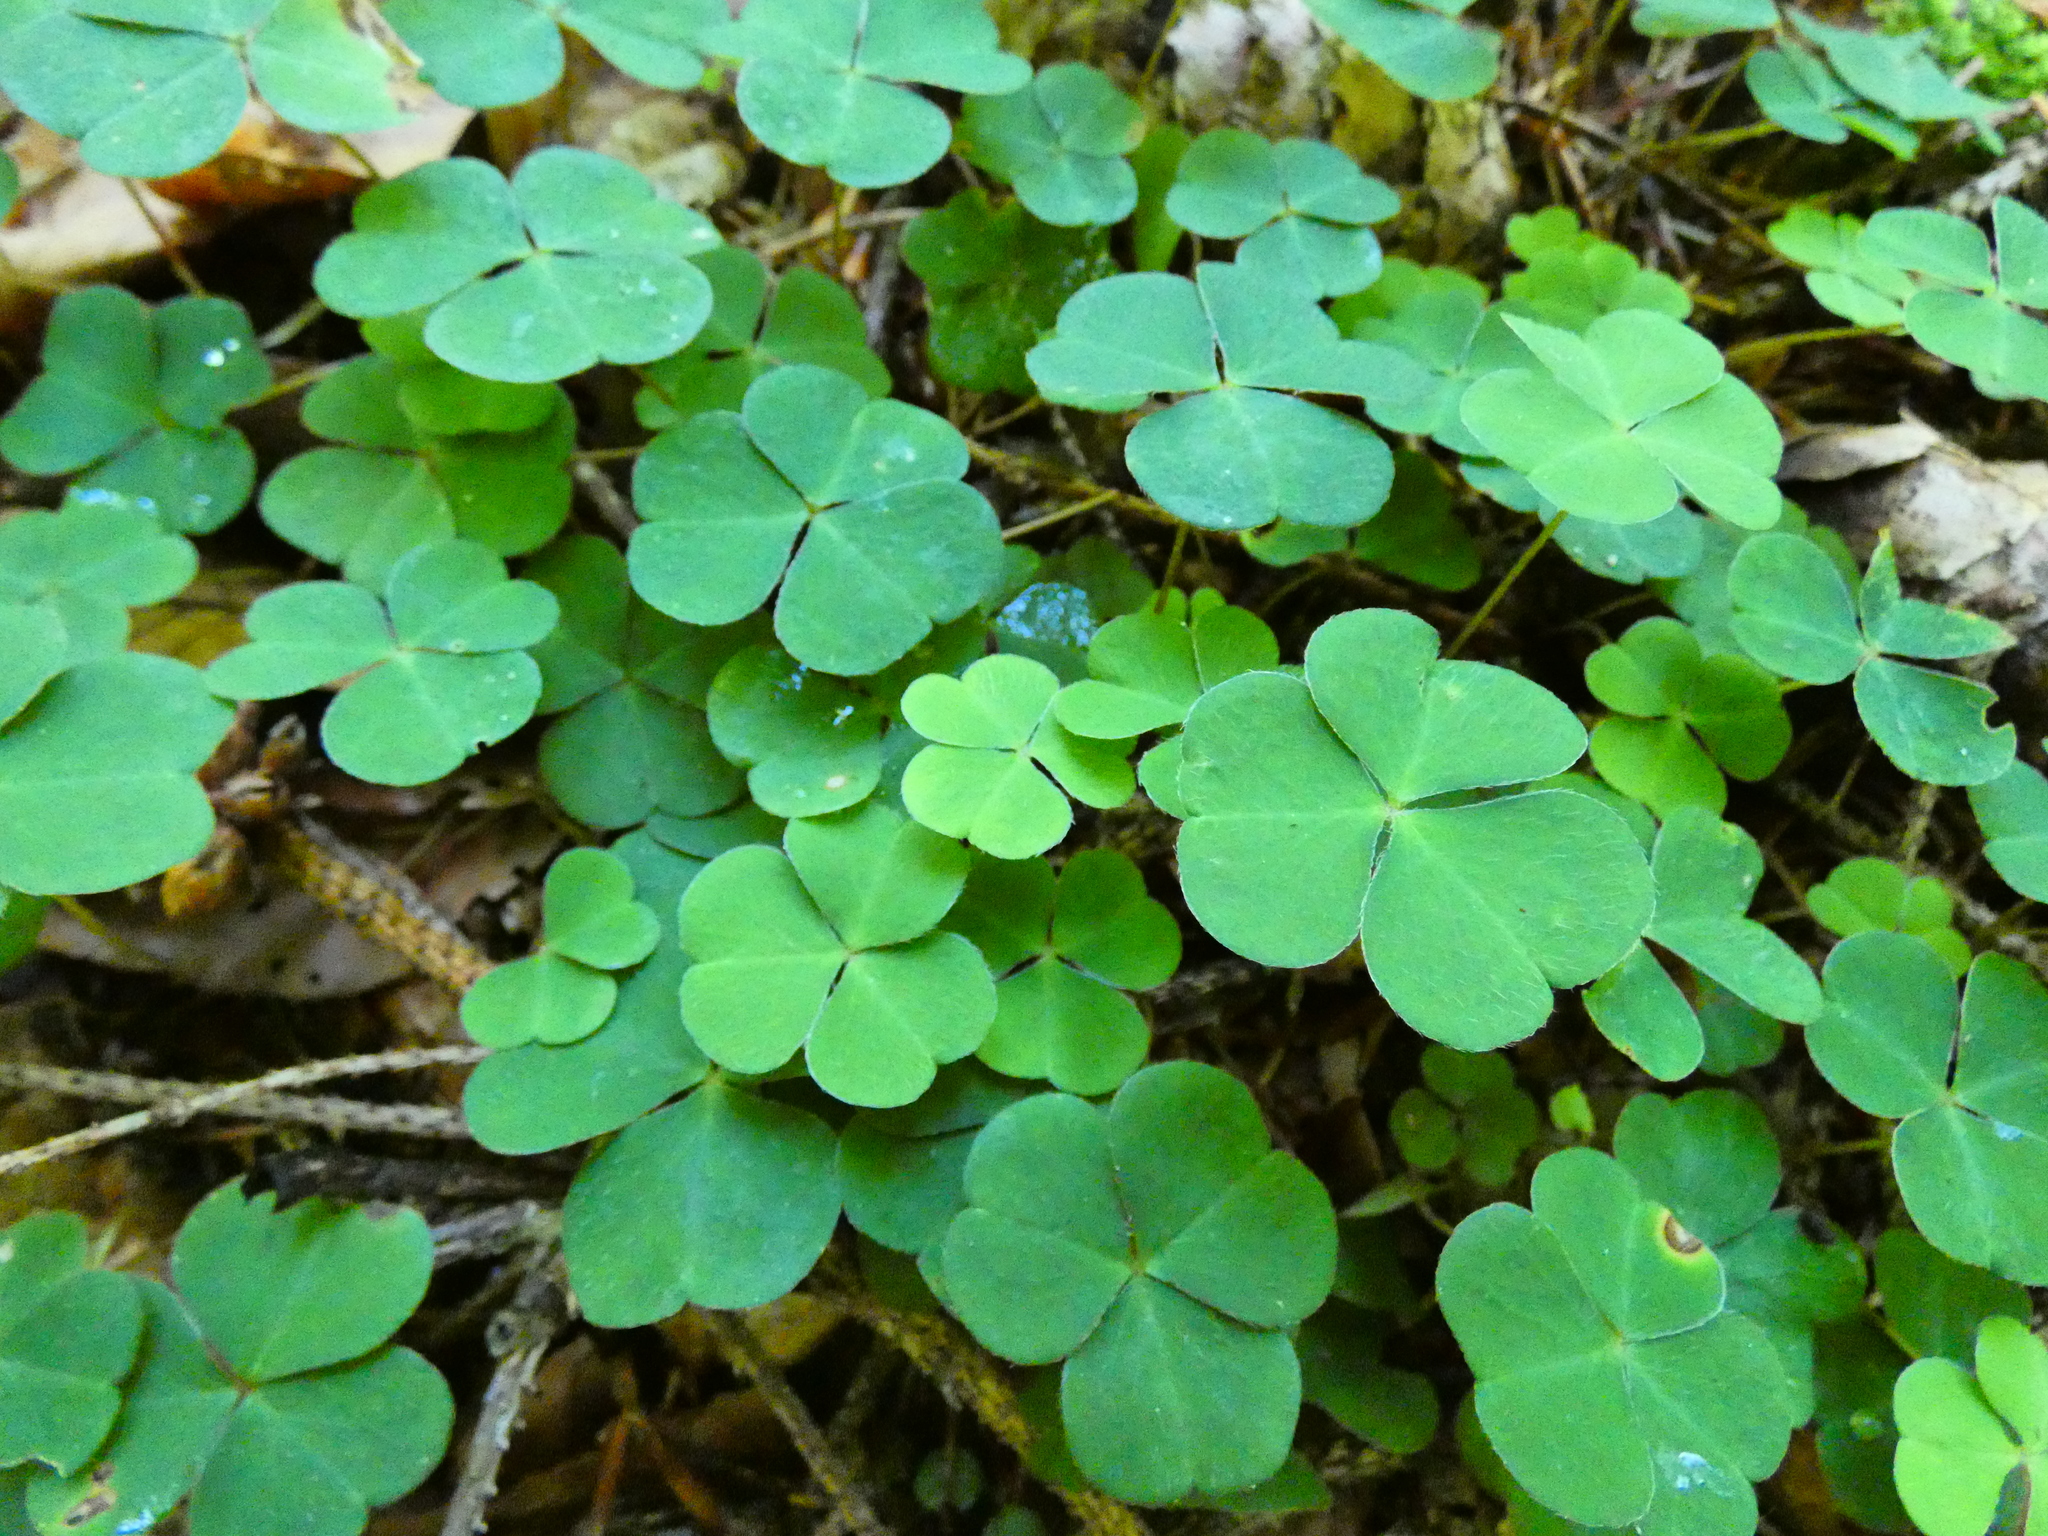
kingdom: Plantae
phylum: Tracheophyta
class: Magnoliopsida
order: Oxalidales
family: Oxalidaceae
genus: Oxalis
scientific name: Oxalis acetosella
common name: Wood-sorrel
